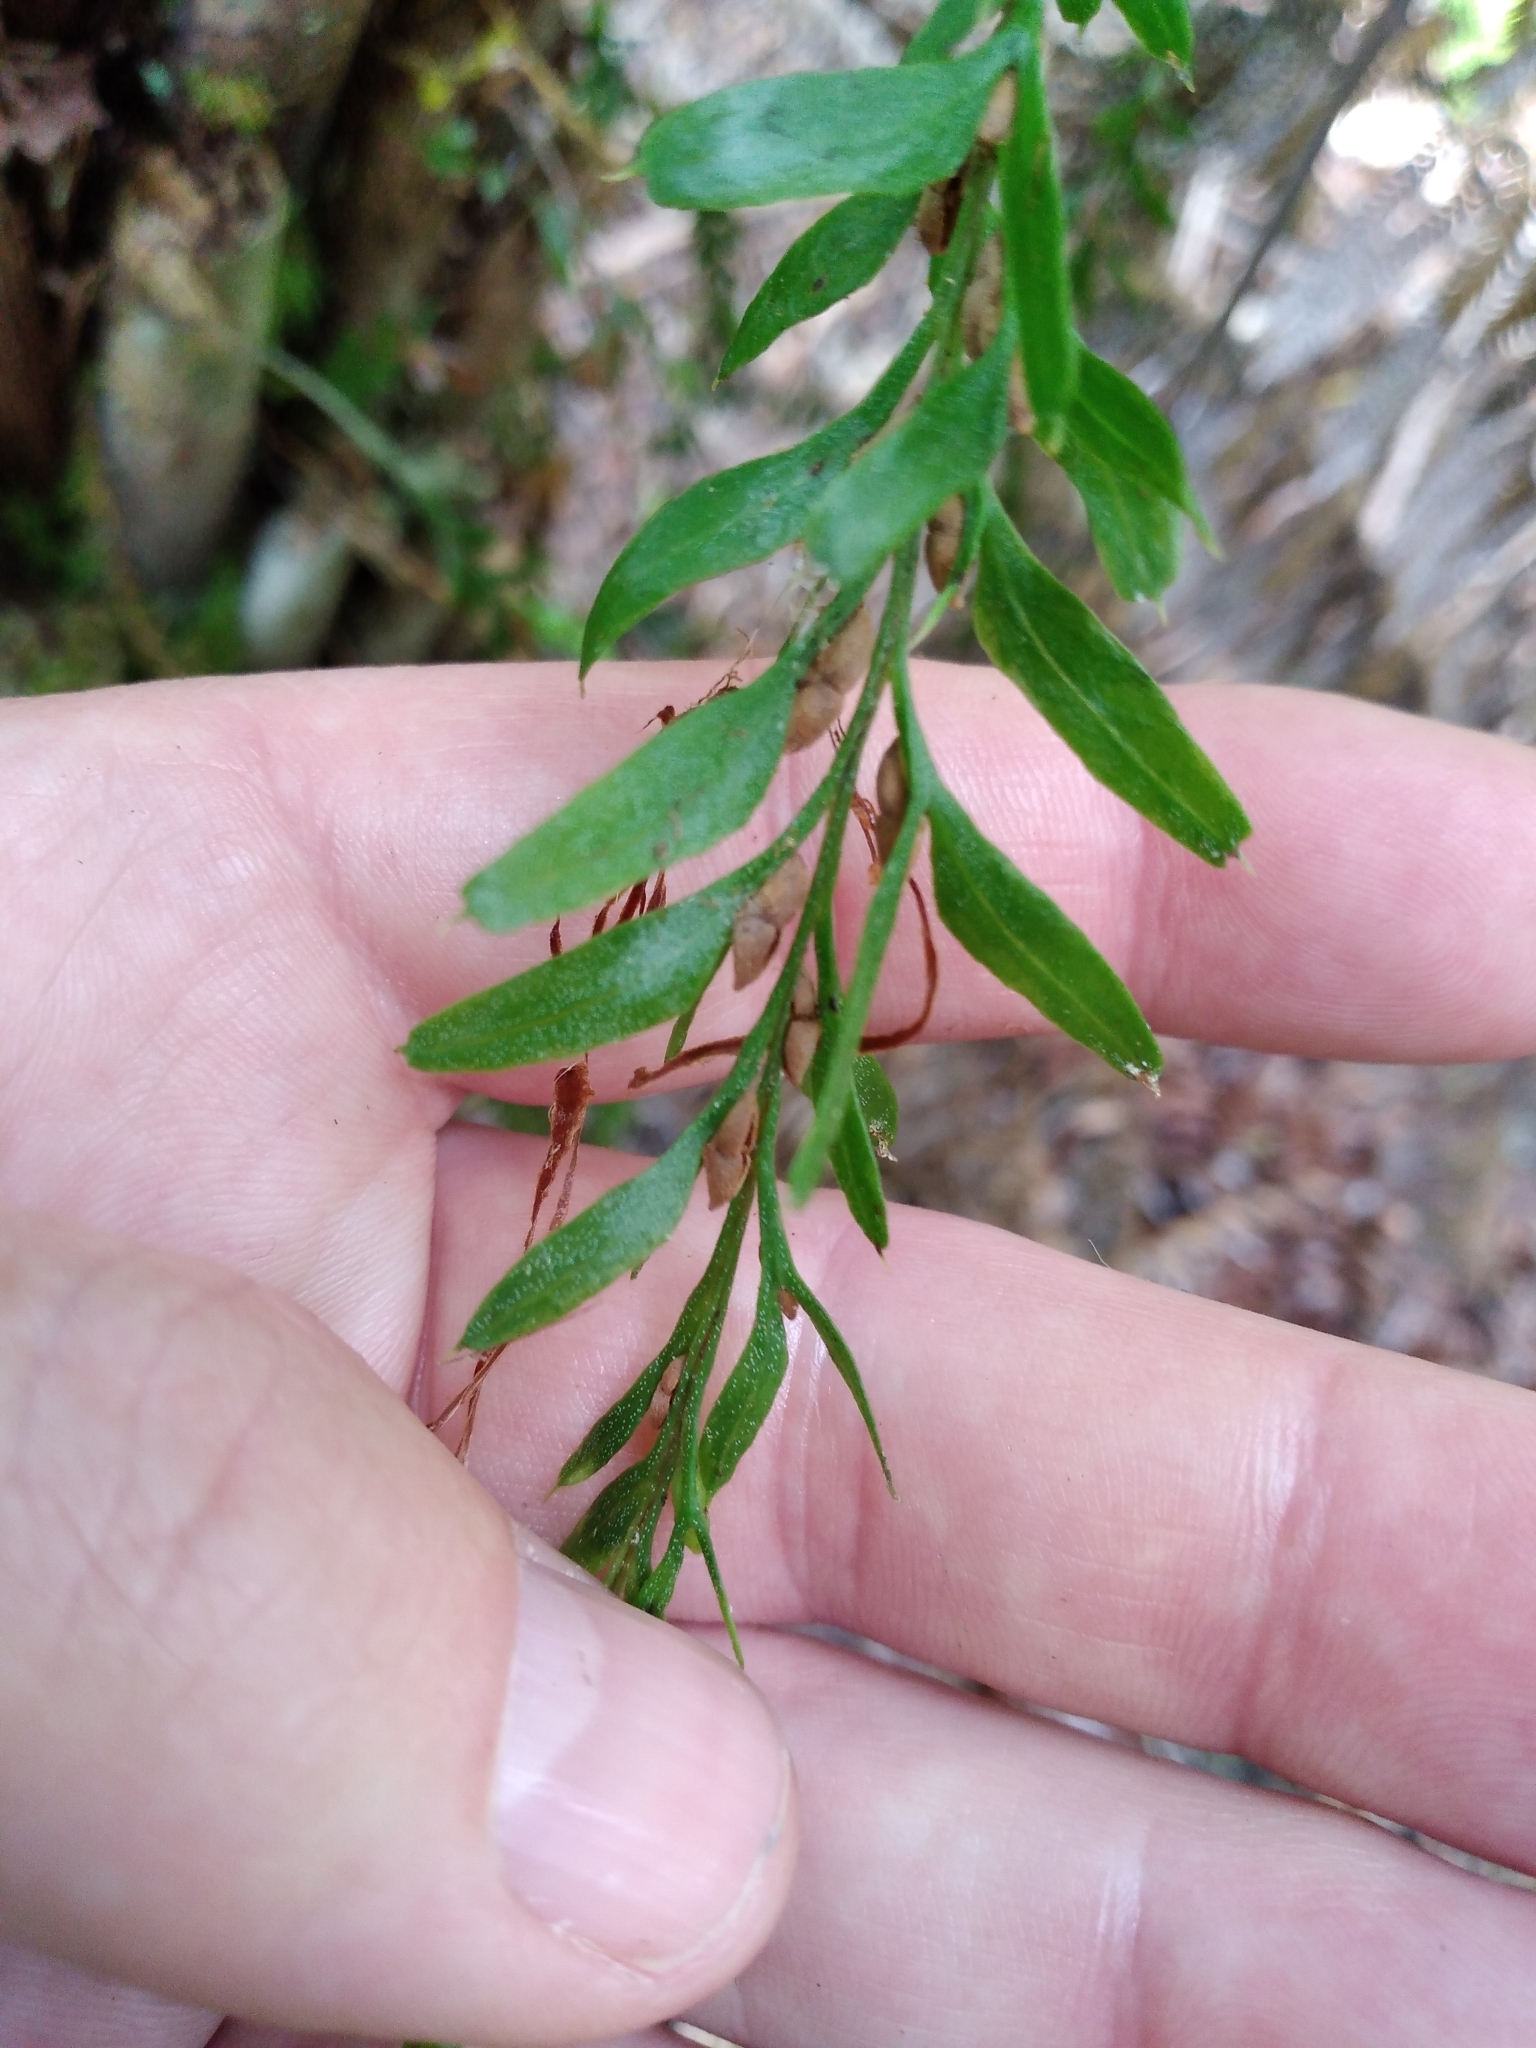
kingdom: Plantae
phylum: Tracheophyta
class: Polypodiopsida
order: Psilotales
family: Psilotaceae
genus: Tmesipteris
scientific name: Tmesipteris tannensis
